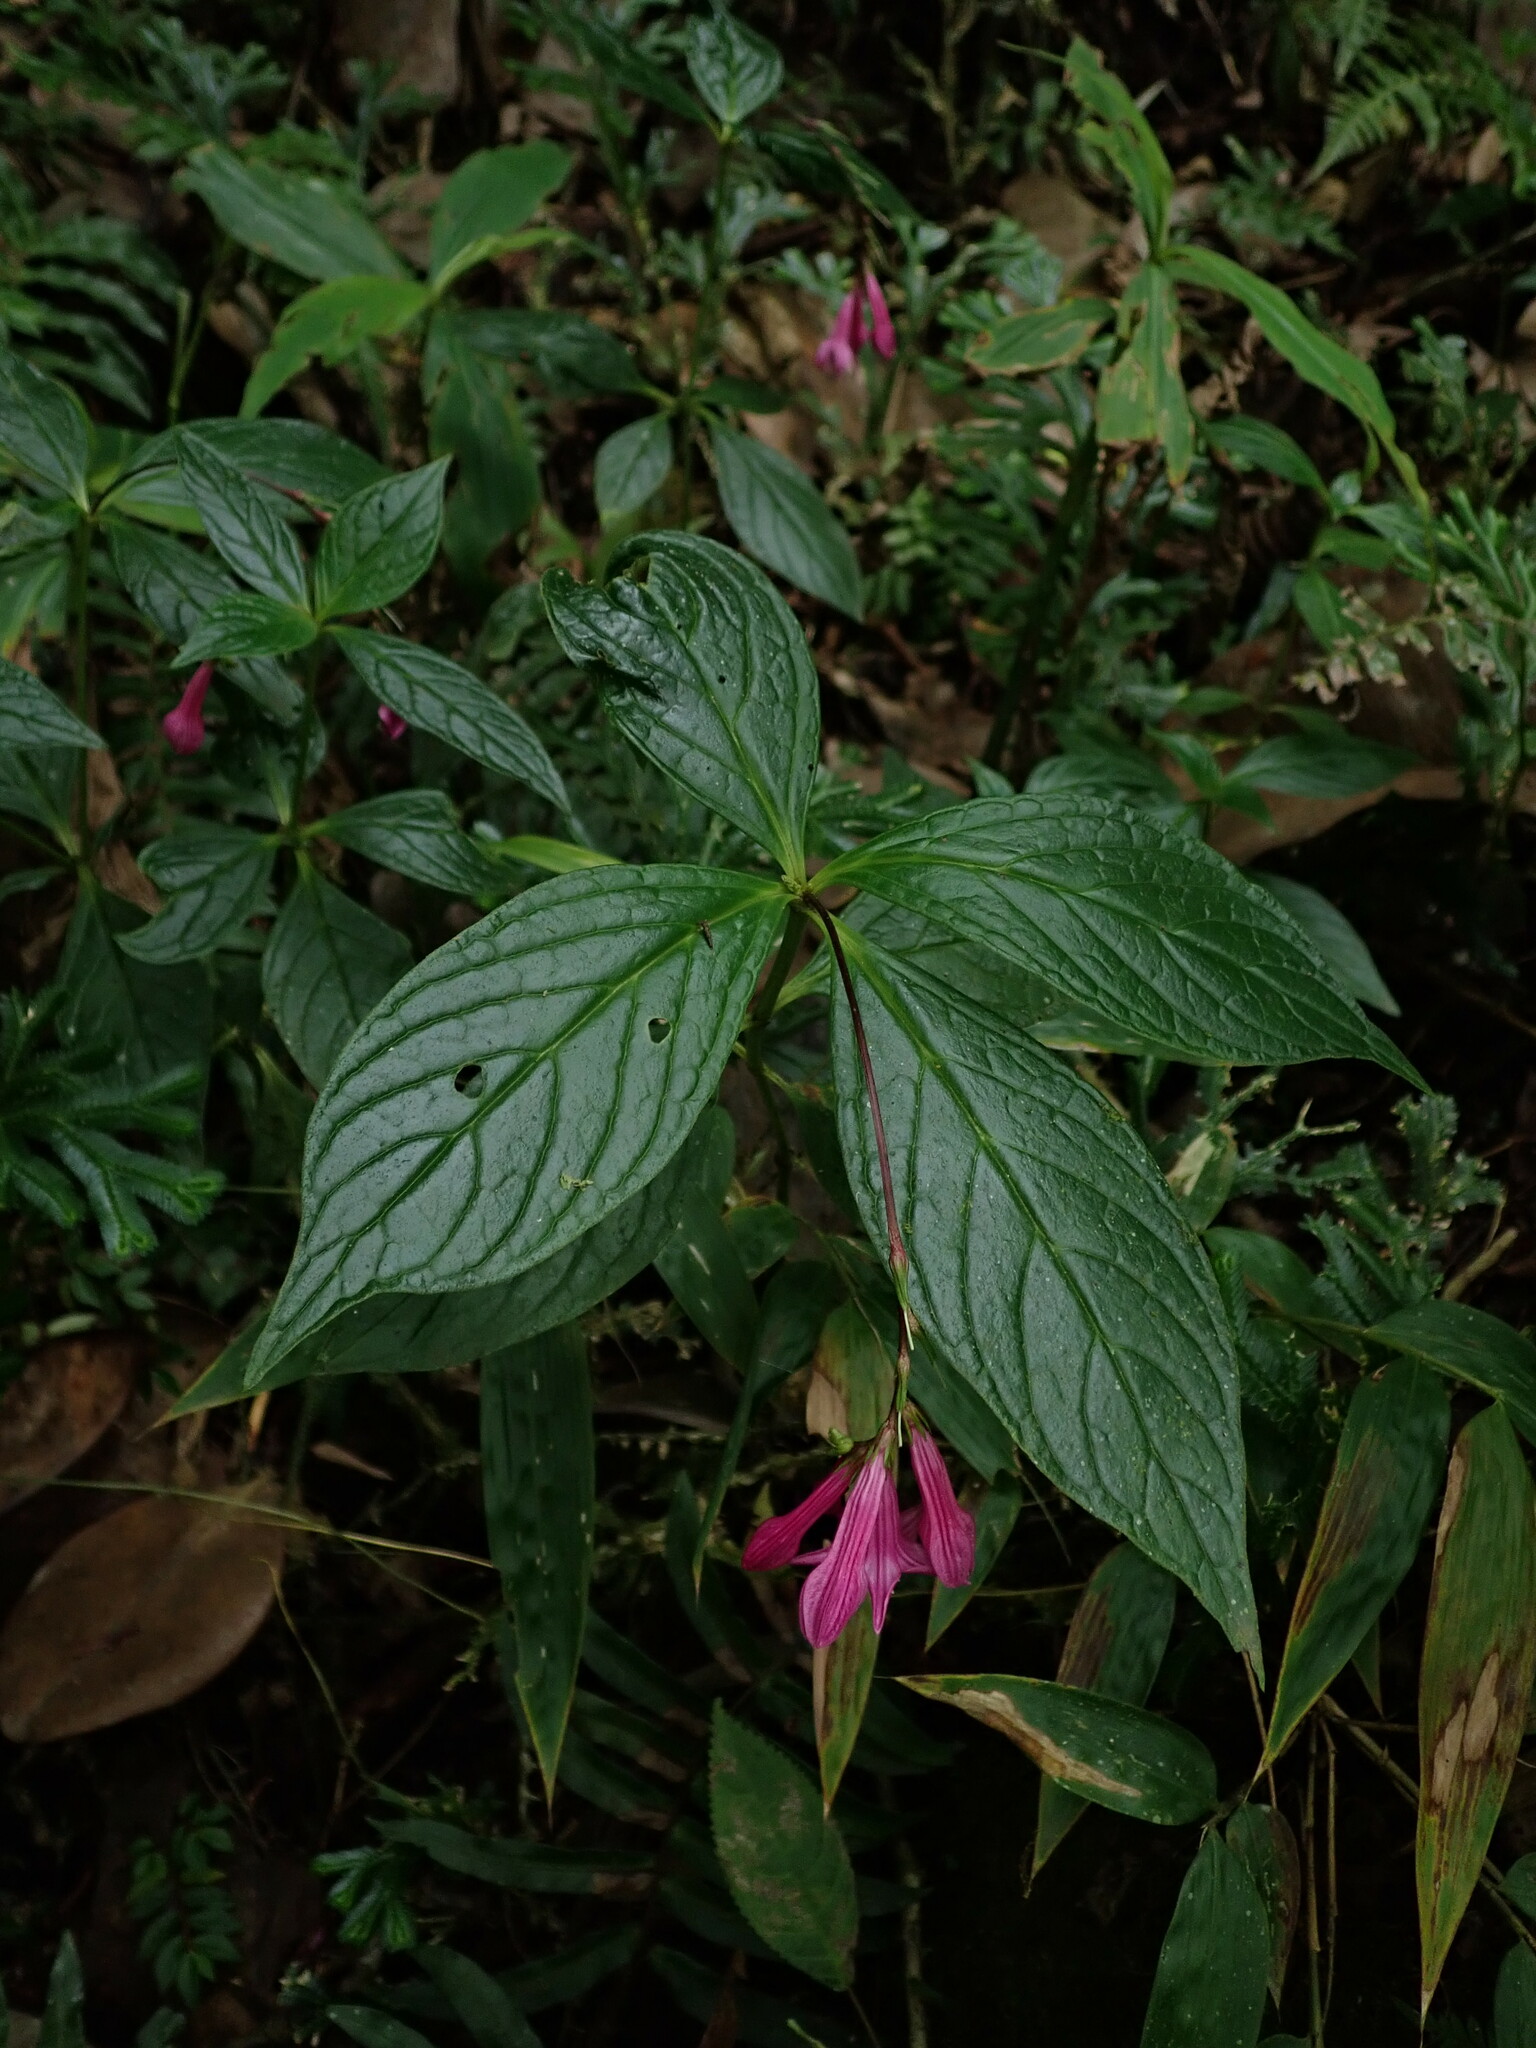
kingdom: Plantae
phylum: Tracheophyta
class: Magnoliopsida
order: Gentianales
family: Loganiaceae
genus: Spigelia
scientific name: Spigelia pedunculata
